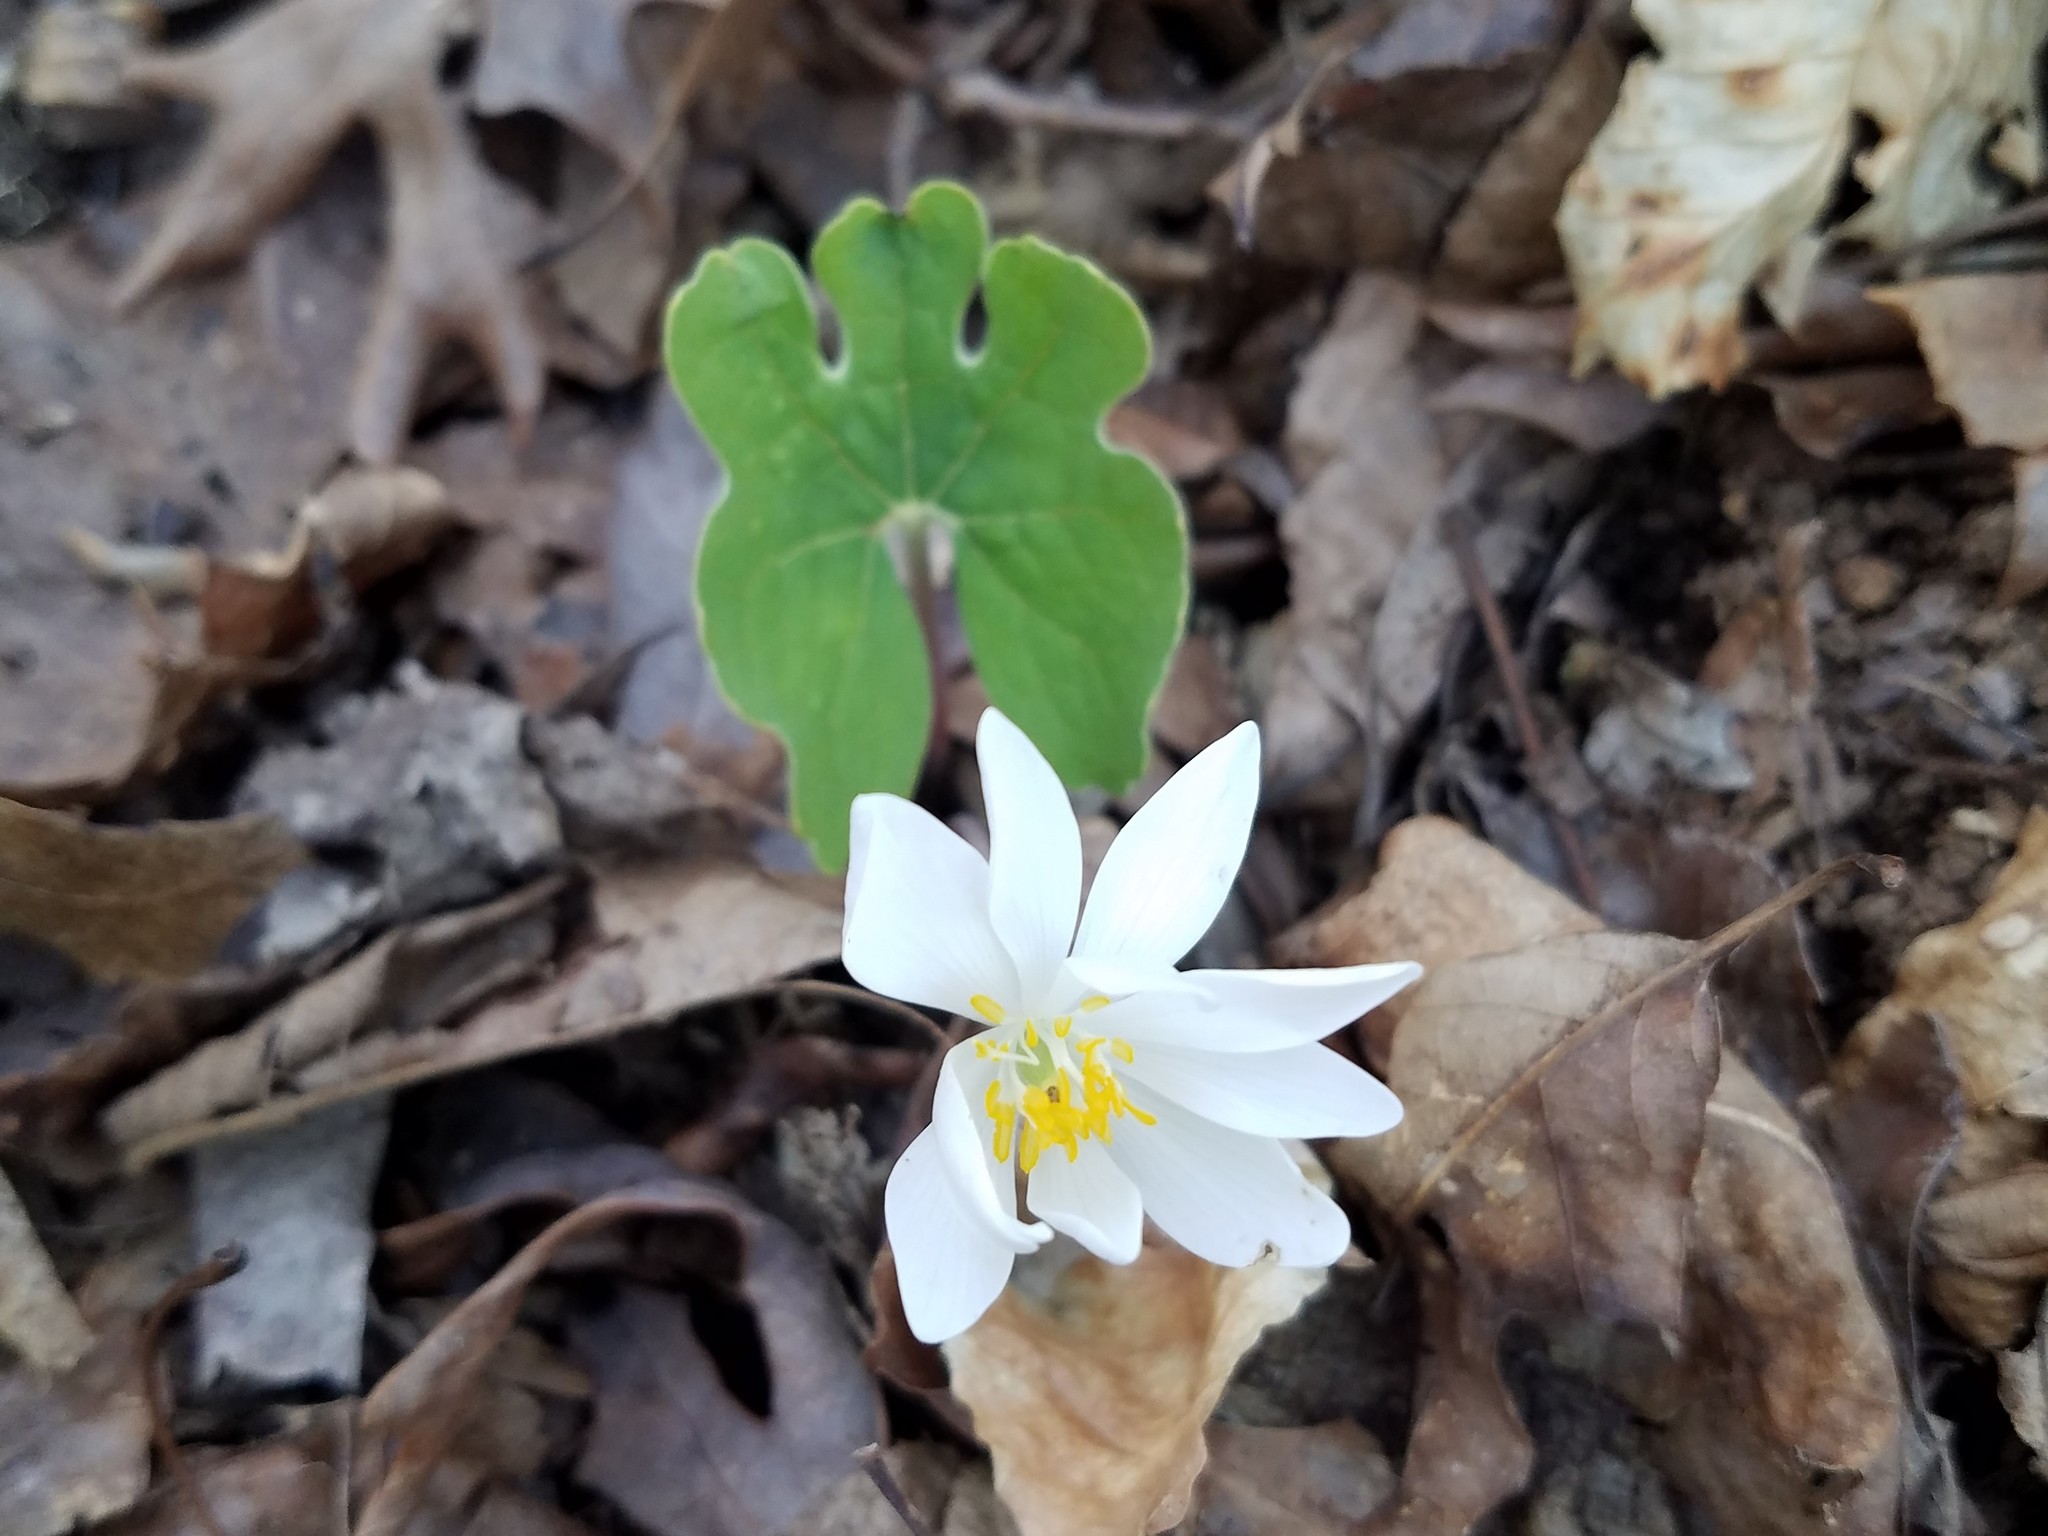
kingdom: Plantae
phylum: Tracheophyta
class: Magnoliopsida
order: Ranunculales
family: Papaveraceae
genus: Sanguinaria
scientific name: Sanguinaria canadensis
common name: Bloodroot
